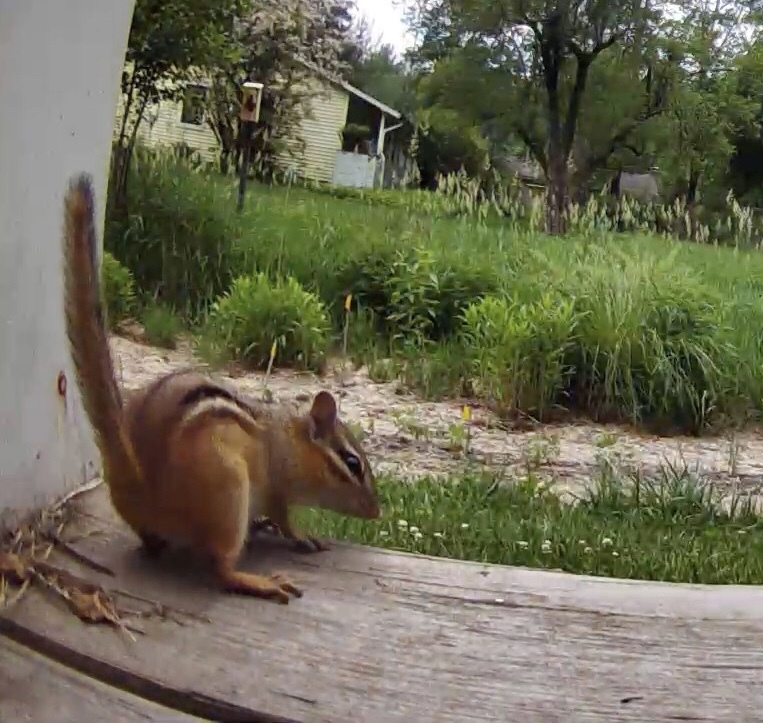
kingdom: Animalia
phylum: Chordata
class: Mammalia
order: Rodentia
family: Sciuridae
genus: Tamias
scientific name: Tamias striatus
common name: Eastern chipmunk
